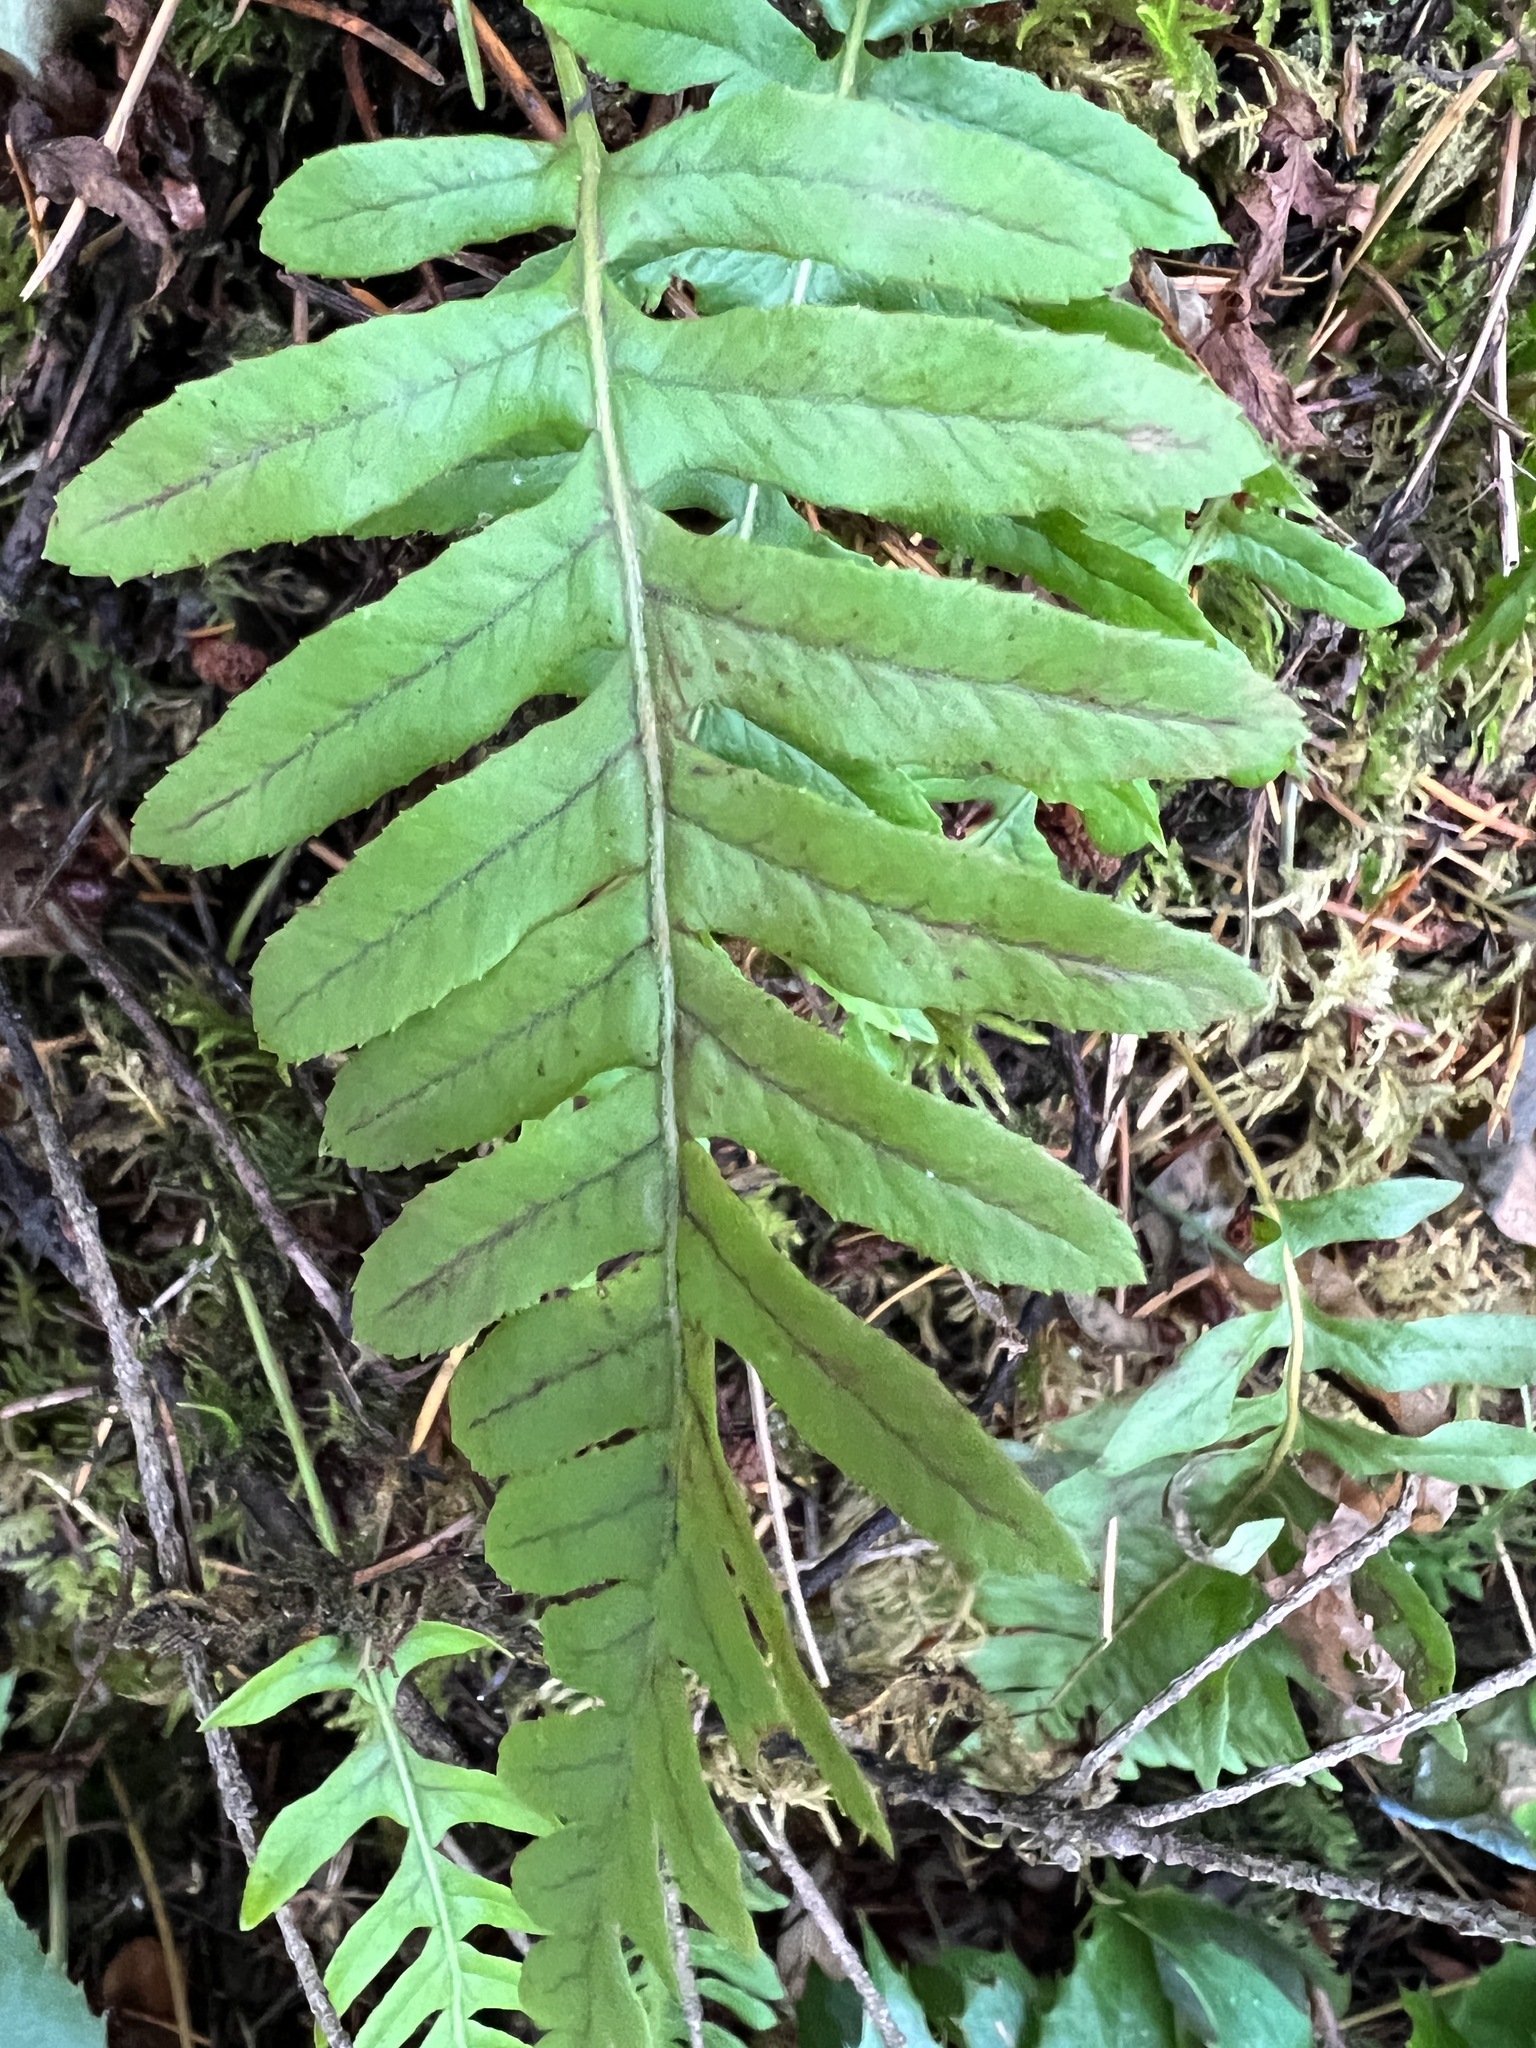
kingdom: Plantae
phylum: Tracheophyta
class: Polypodiopsida
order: Polypodiales
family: Polypodiaceae
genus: Polypodium
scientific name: Polypodium glycyrrhiza
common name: Licorice fern
